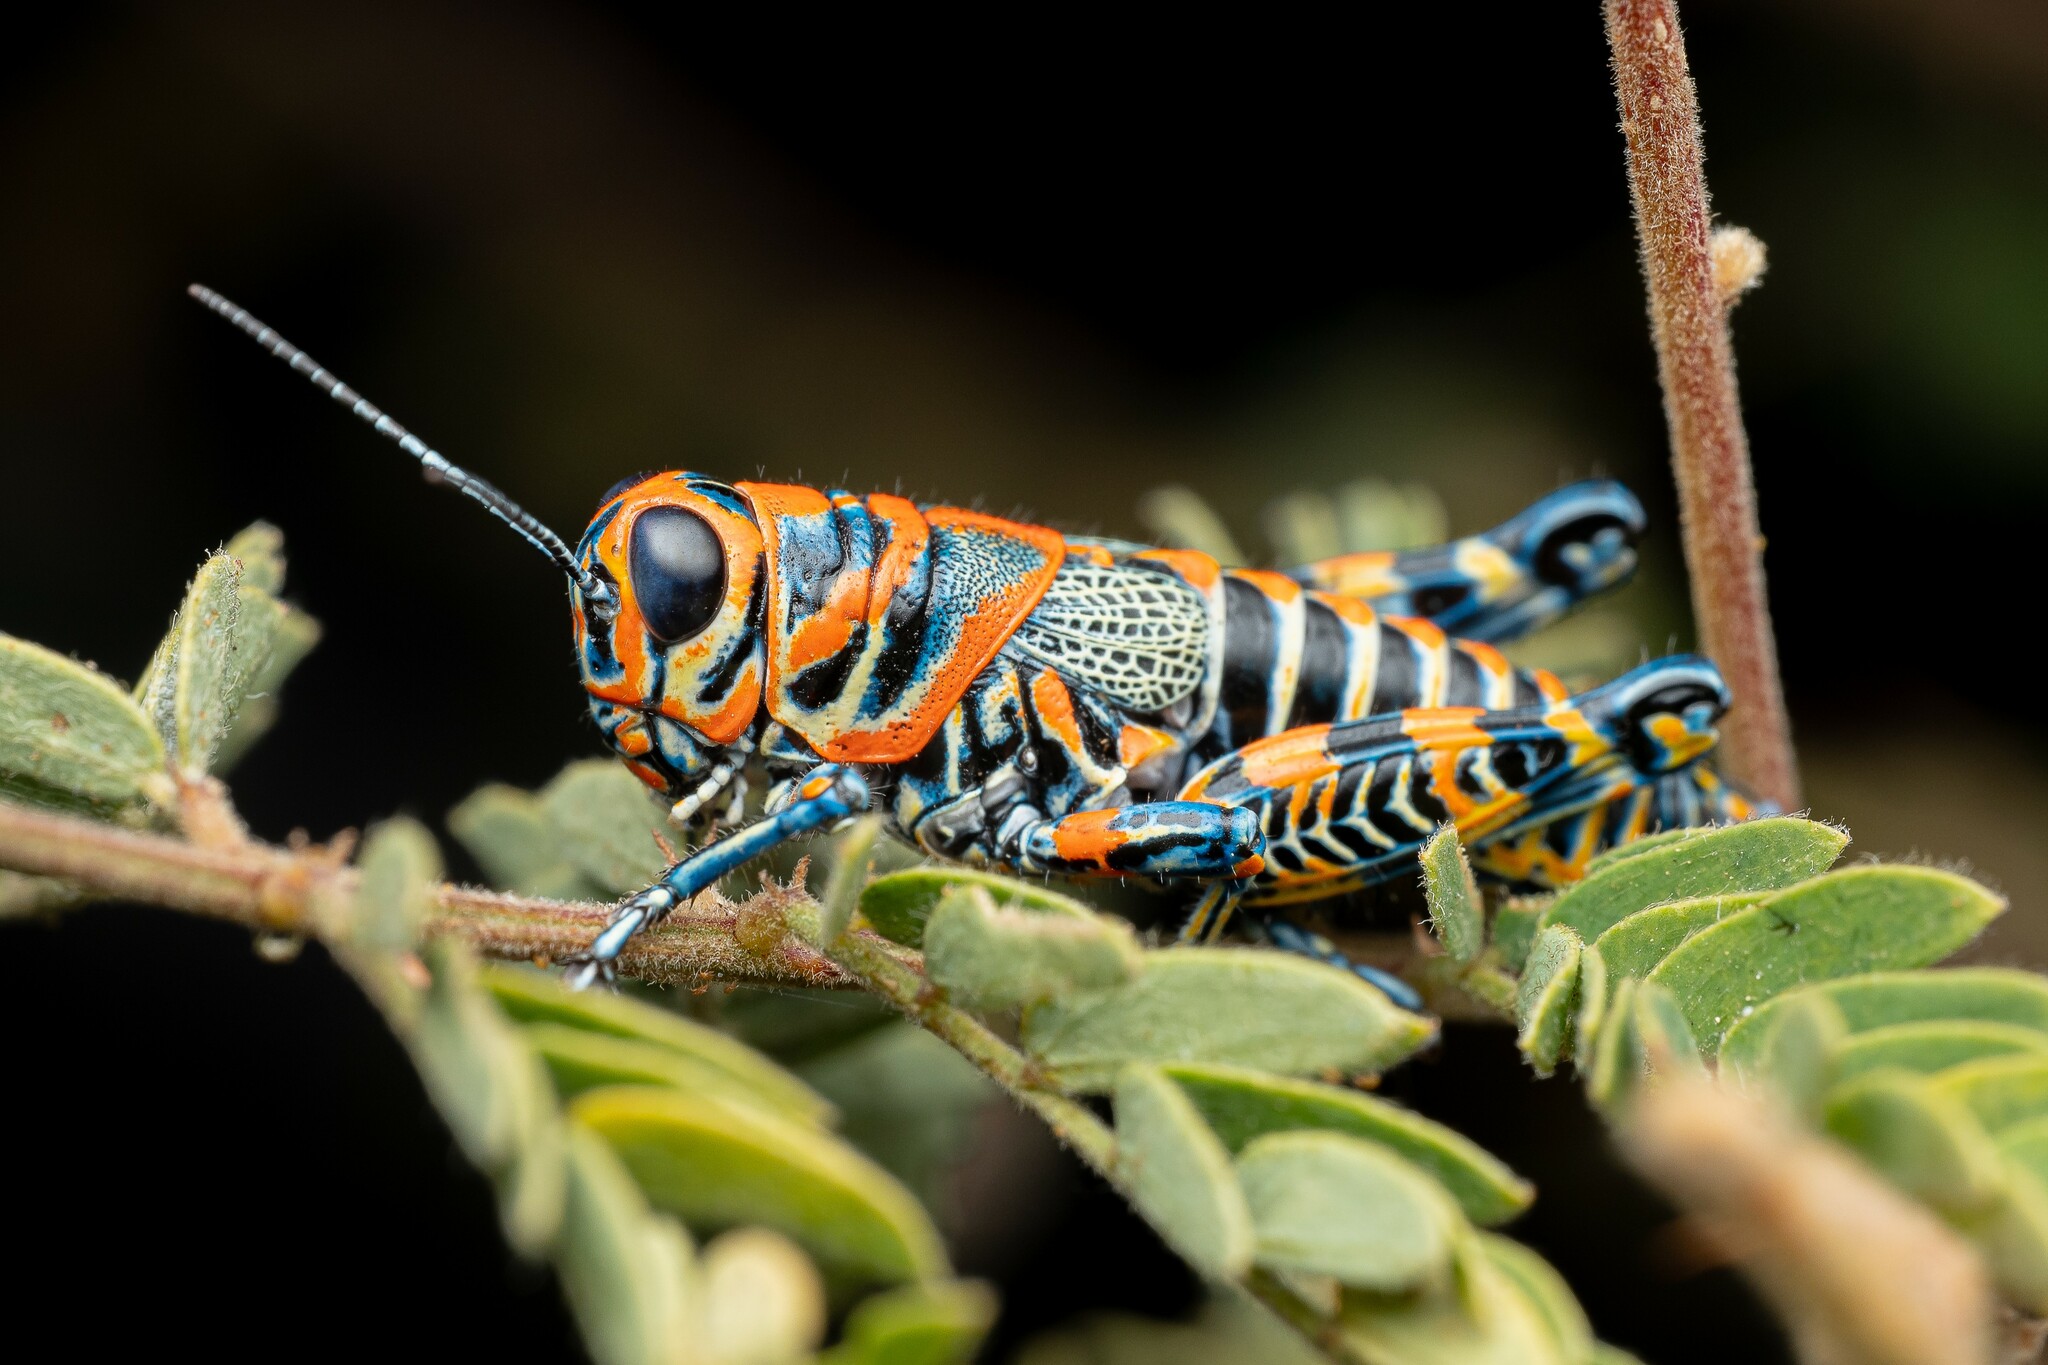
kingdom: Animalia
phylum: Arthropoda
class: Insecta
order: Orthoptera
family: Acrididae
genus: Dactylotum
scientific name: Dactylotum bicolor
